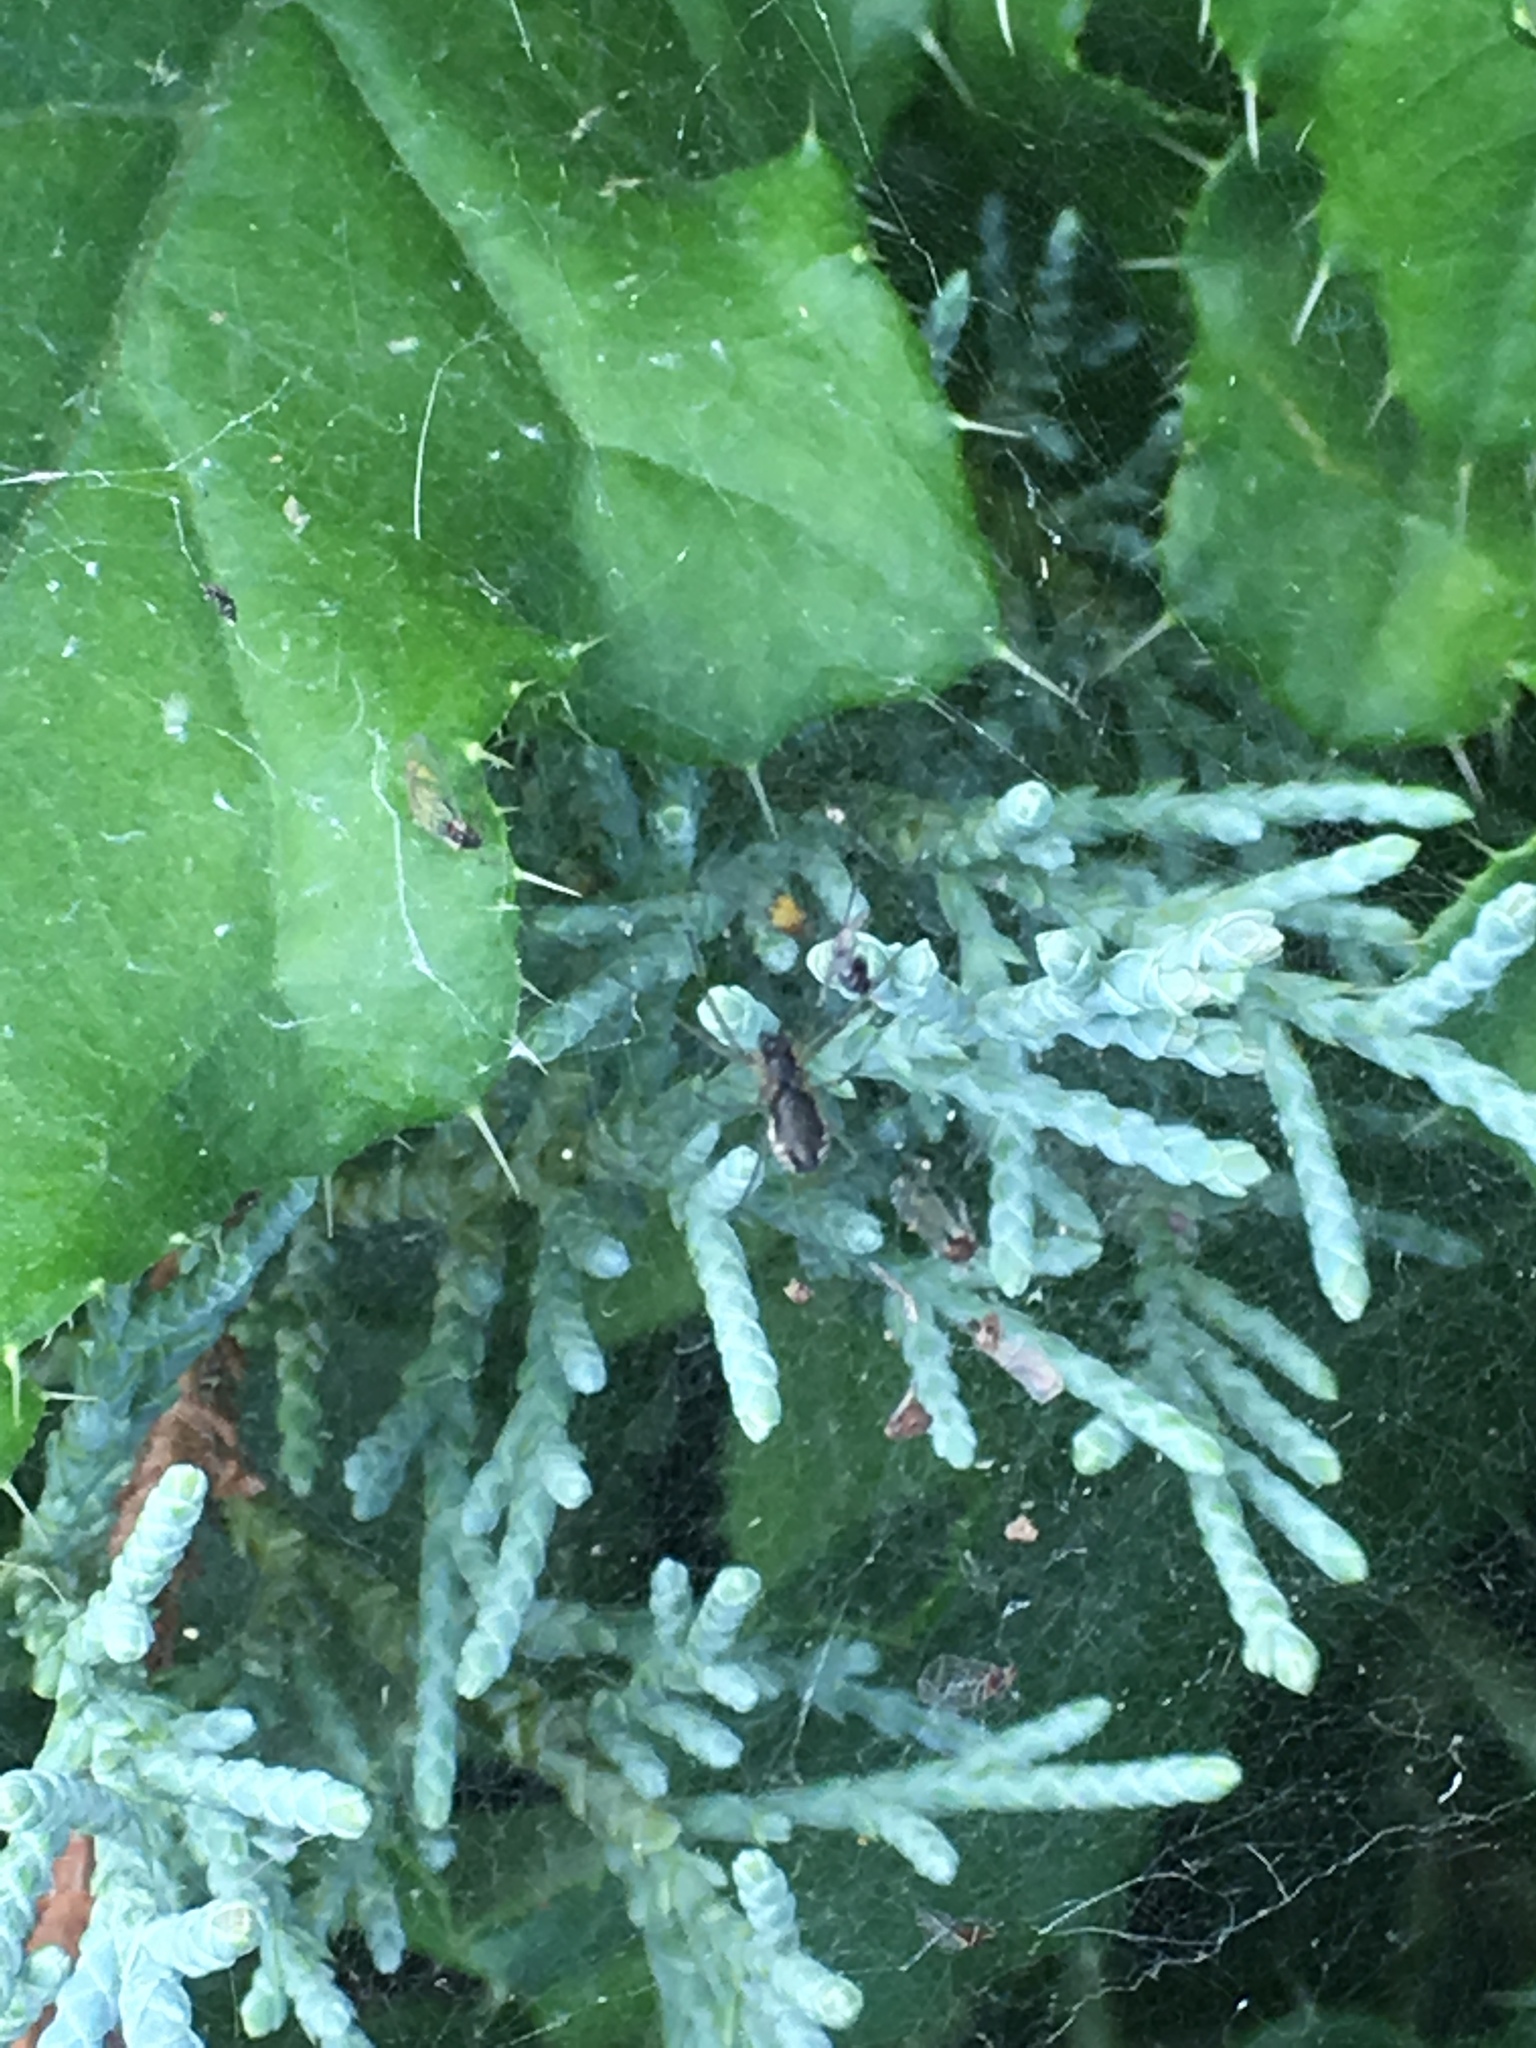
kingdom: Animalia
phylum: Arthropoda
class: Arachnida
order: Araneae
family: Linyphiidae
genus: Frontinella
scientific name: Frontinella pyramitela
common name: Bowl-and-doily spider
